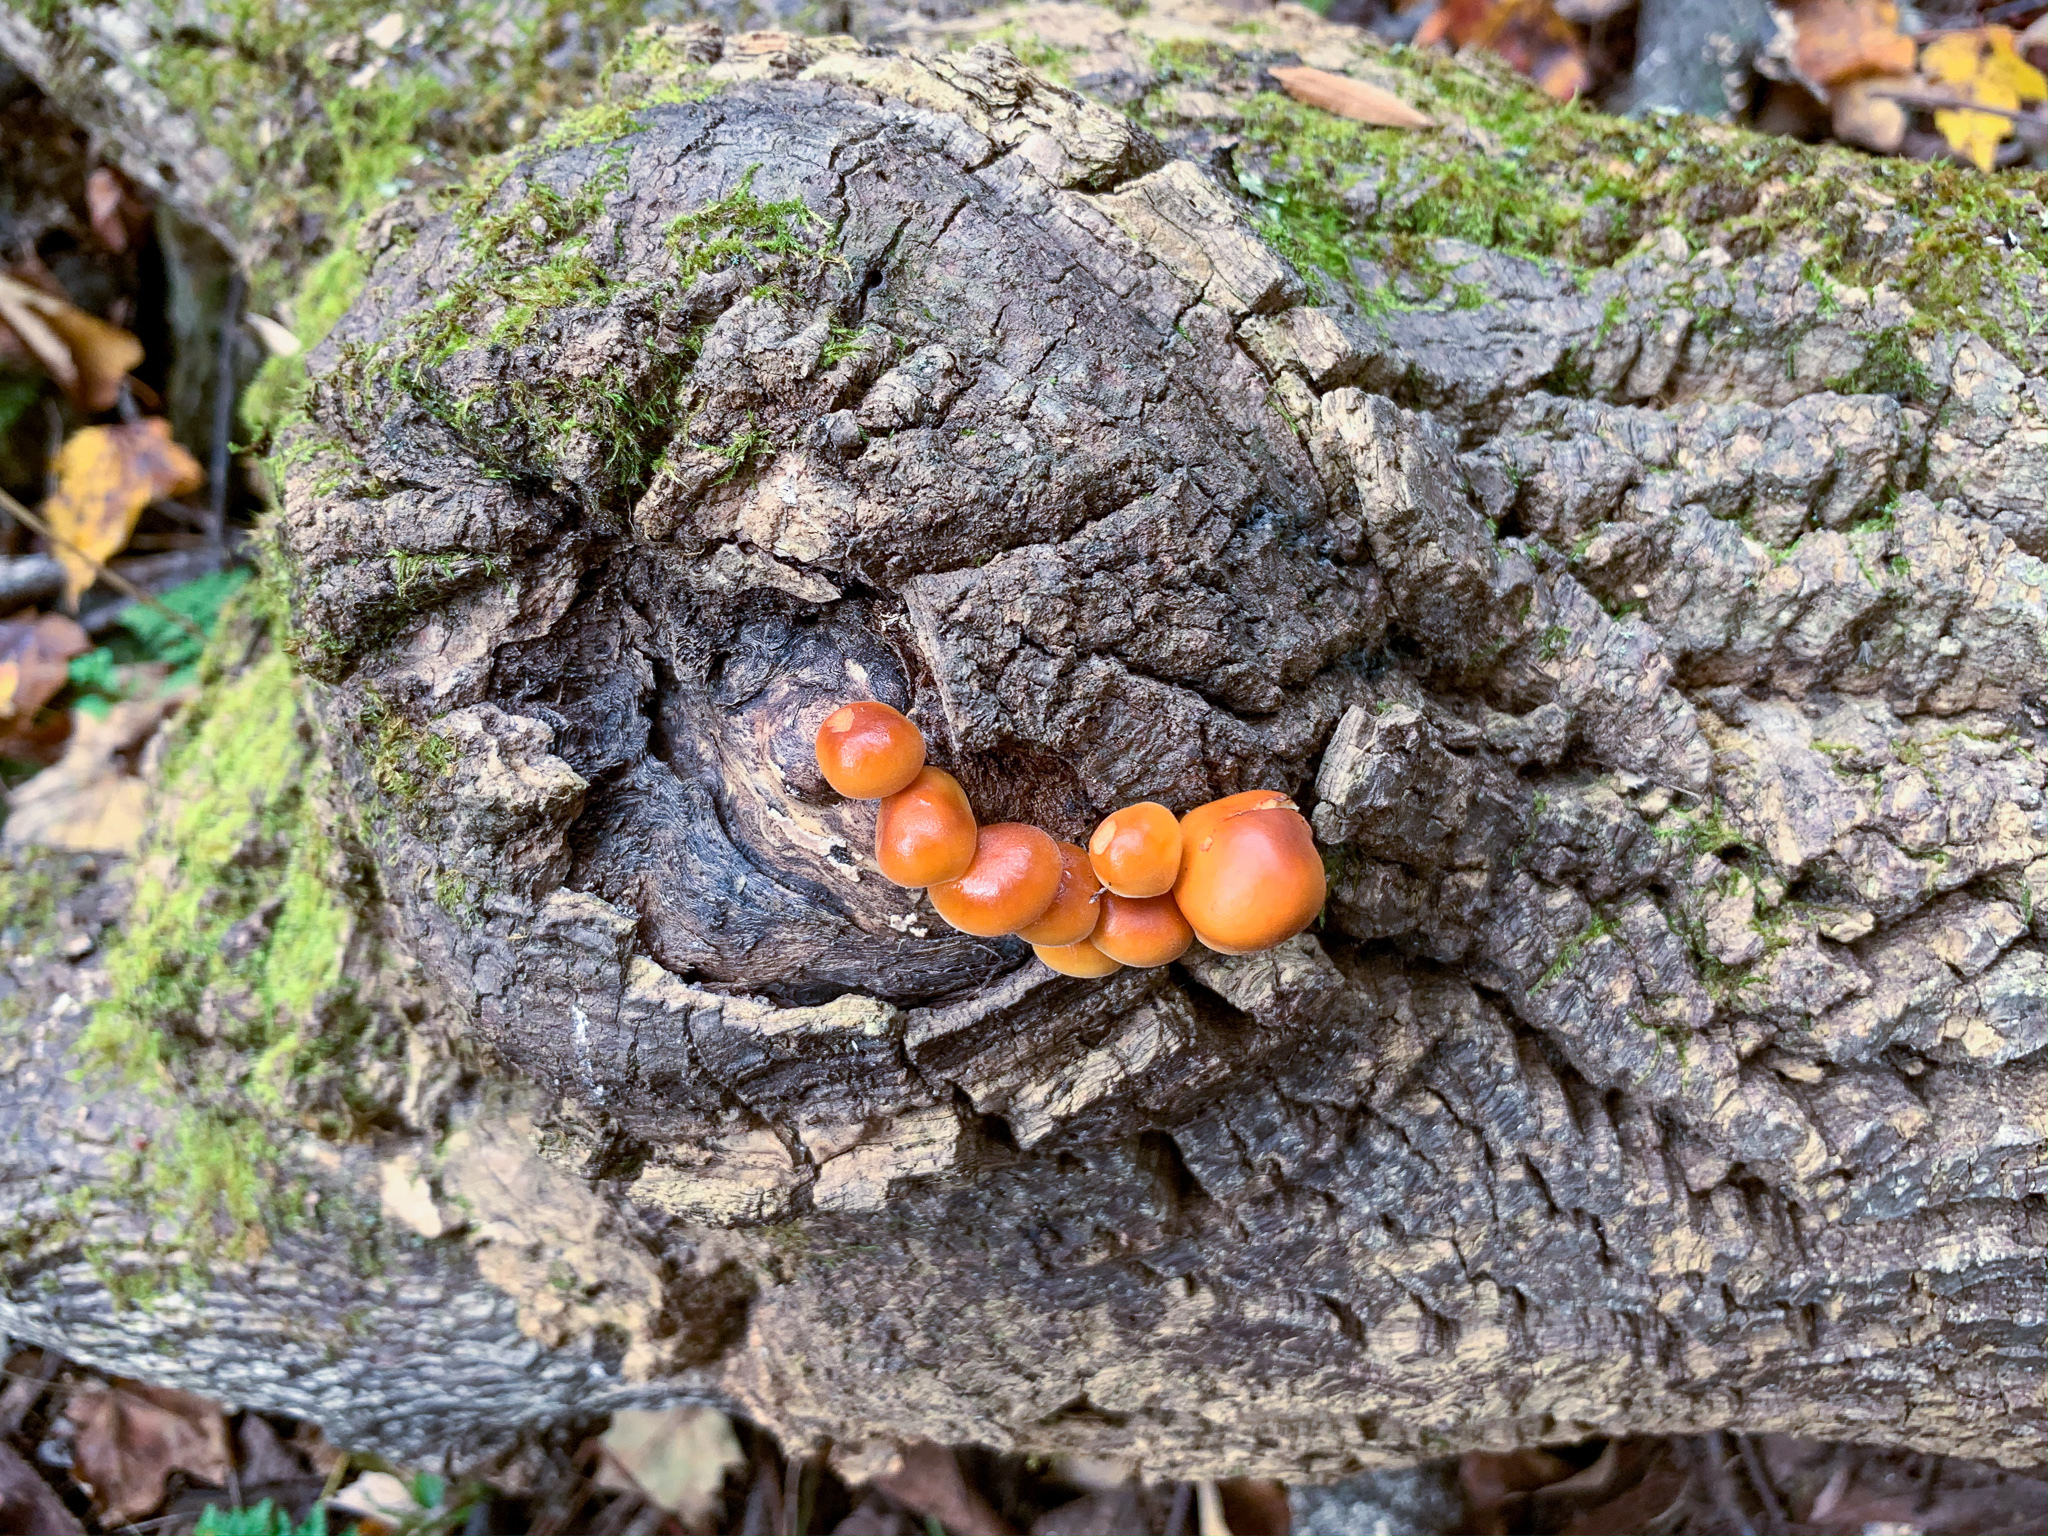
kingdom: Fungi
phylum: Basidiomycota
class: Agaricomycetes
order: Agaricales
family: Physalacriaceae
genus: Flammulina
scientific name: Flammulina velutipes
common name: Velvet shank
